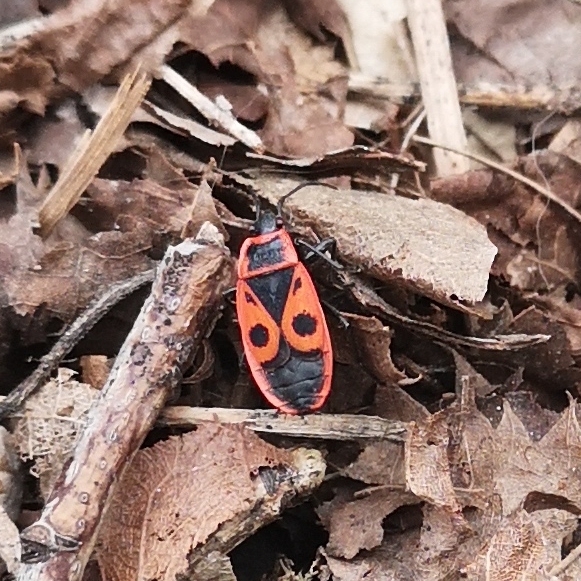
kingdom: Animalia
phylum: Arthropoda
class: Insecta
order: Hemiptera
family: Pyrrhocoridae
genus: Pyrrhocoris
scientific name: Pyrrhocoris apterus
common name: Firebug
